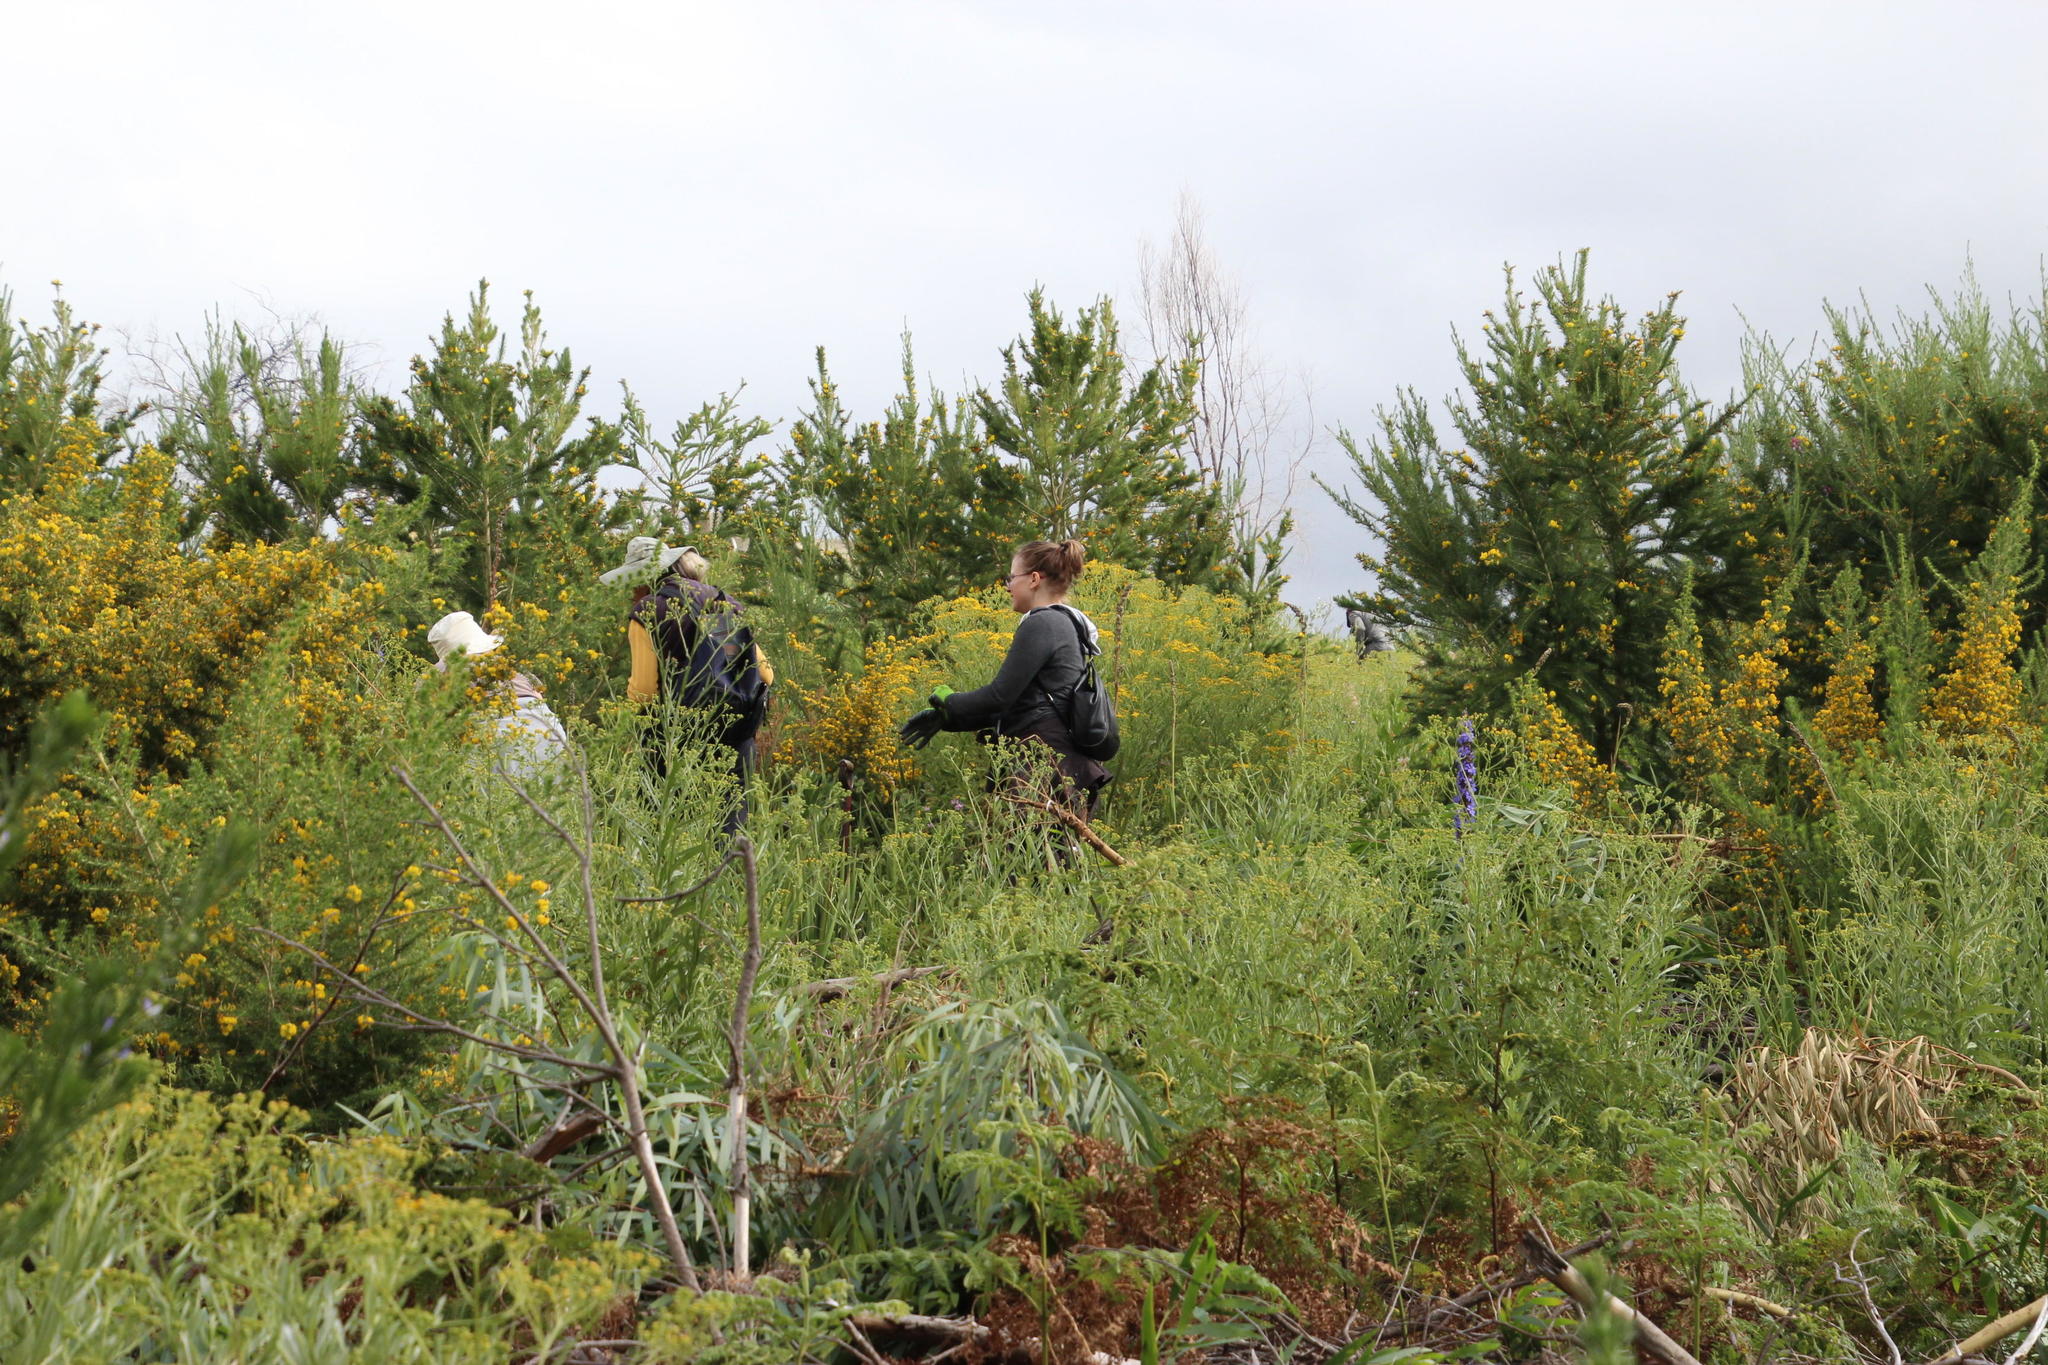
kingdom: Plantae
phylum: Tracheophyta
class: Magnoliopsida
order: Fabales
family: Fabaceae
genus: Aspalathus
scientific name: Aspalathus astroites
